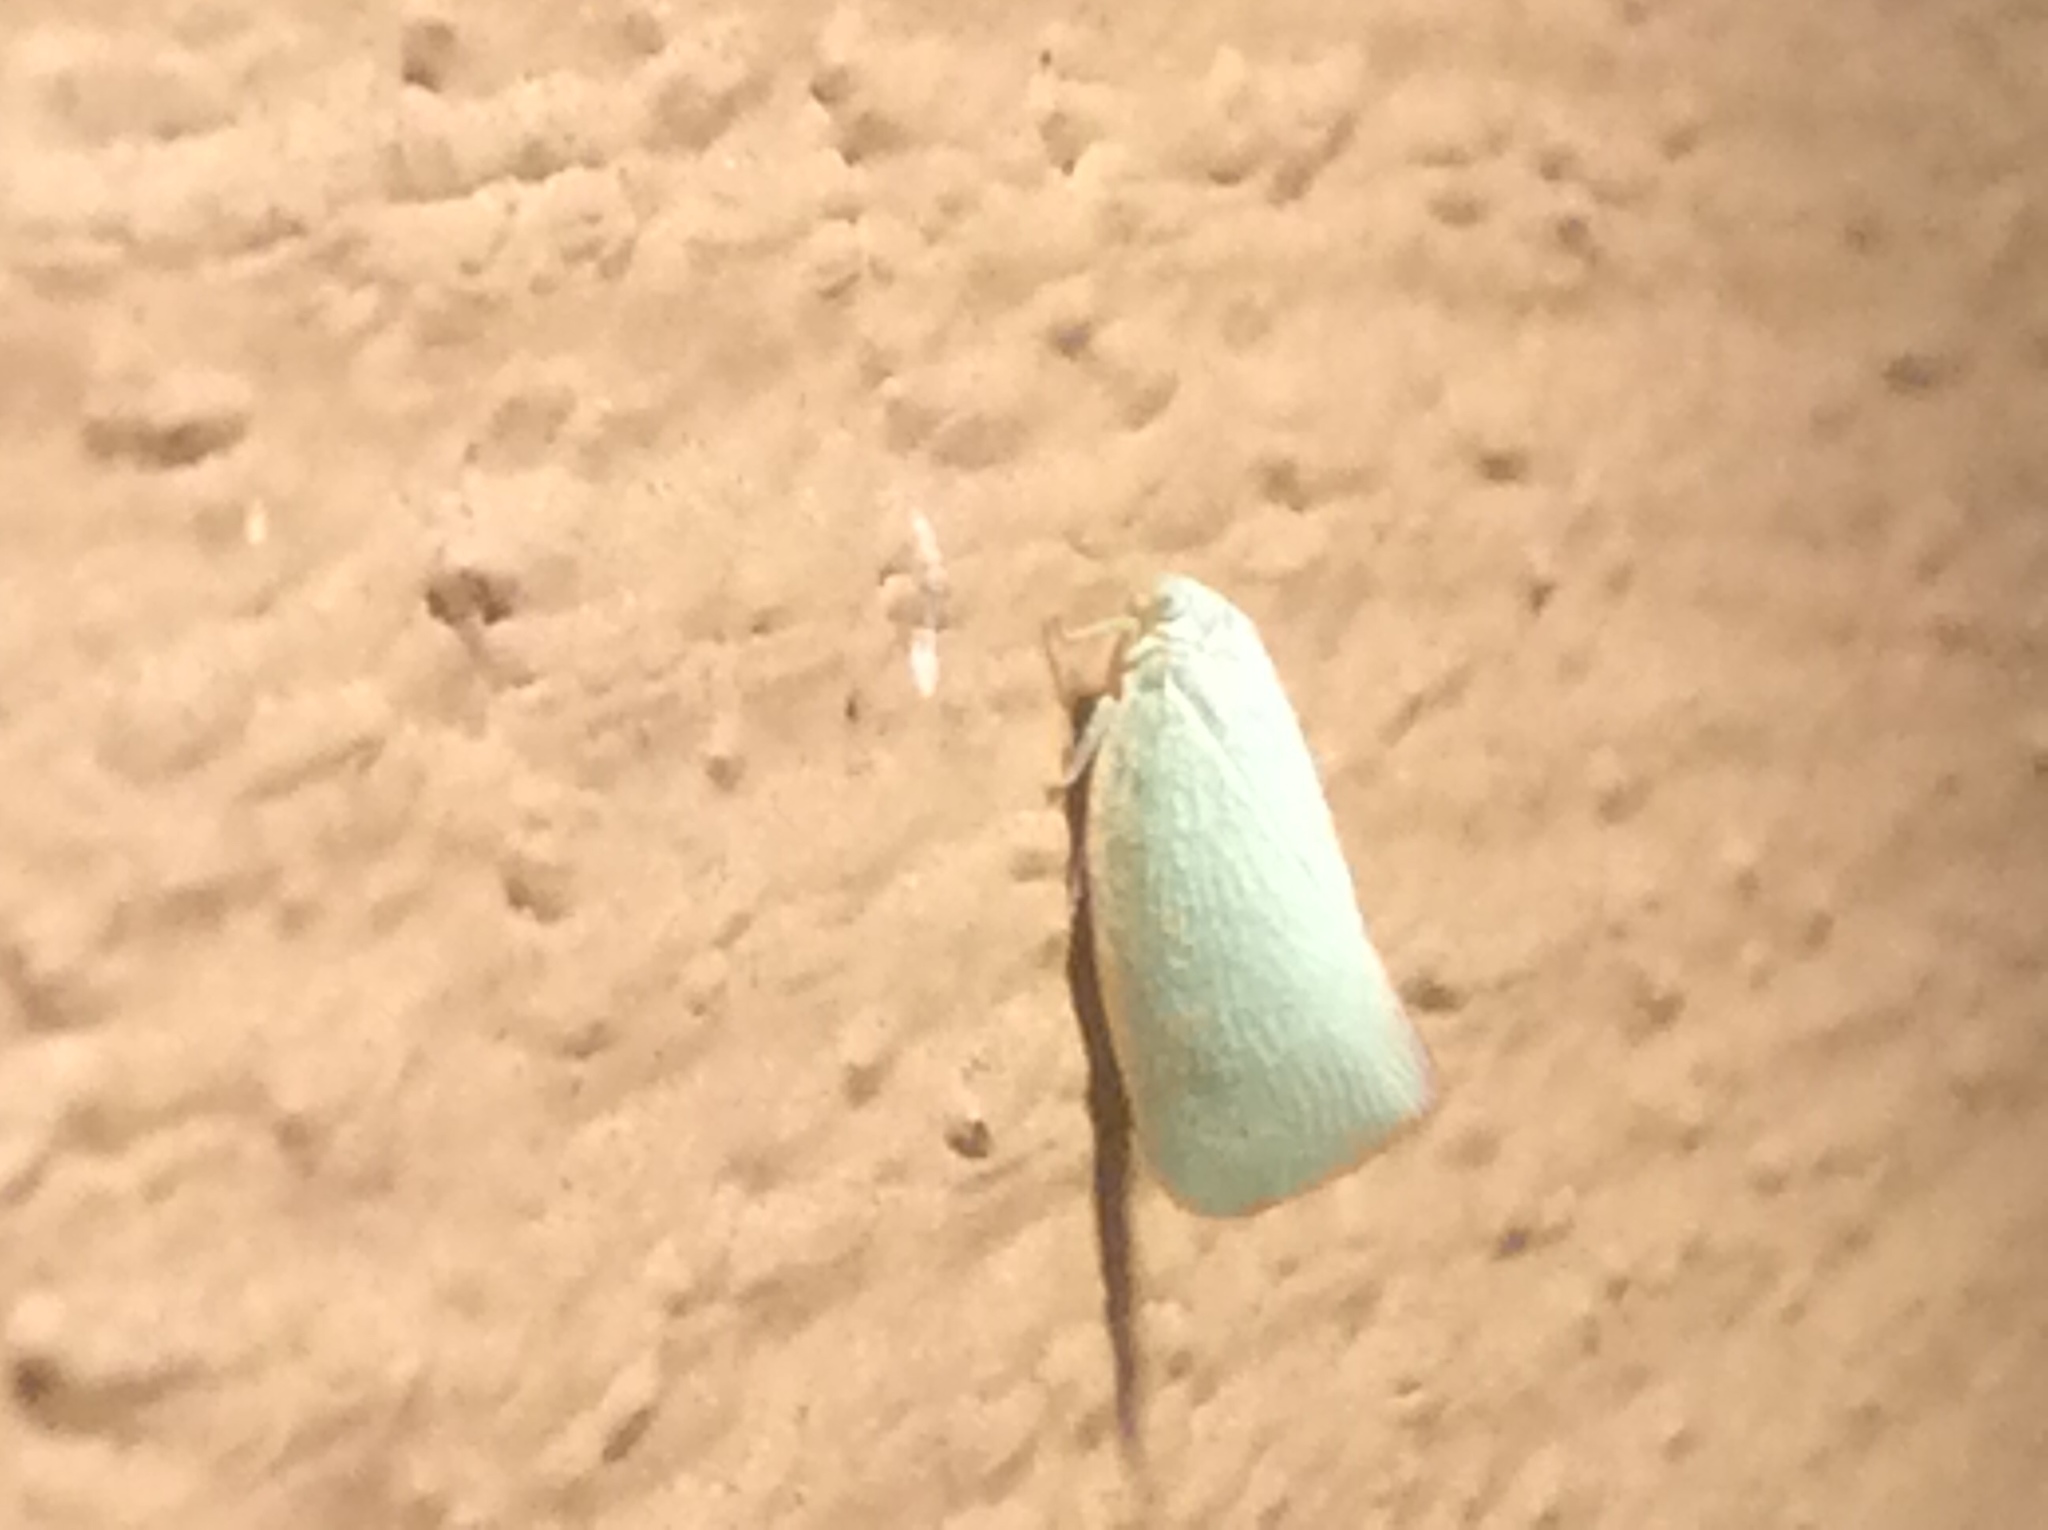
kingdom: Animalia
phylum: Arthropoda
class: Insecta
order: Hemiptera
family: Flatidae
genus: Flatormenis
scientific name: Flatormenis proxima
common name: Northern flatid planthopper
